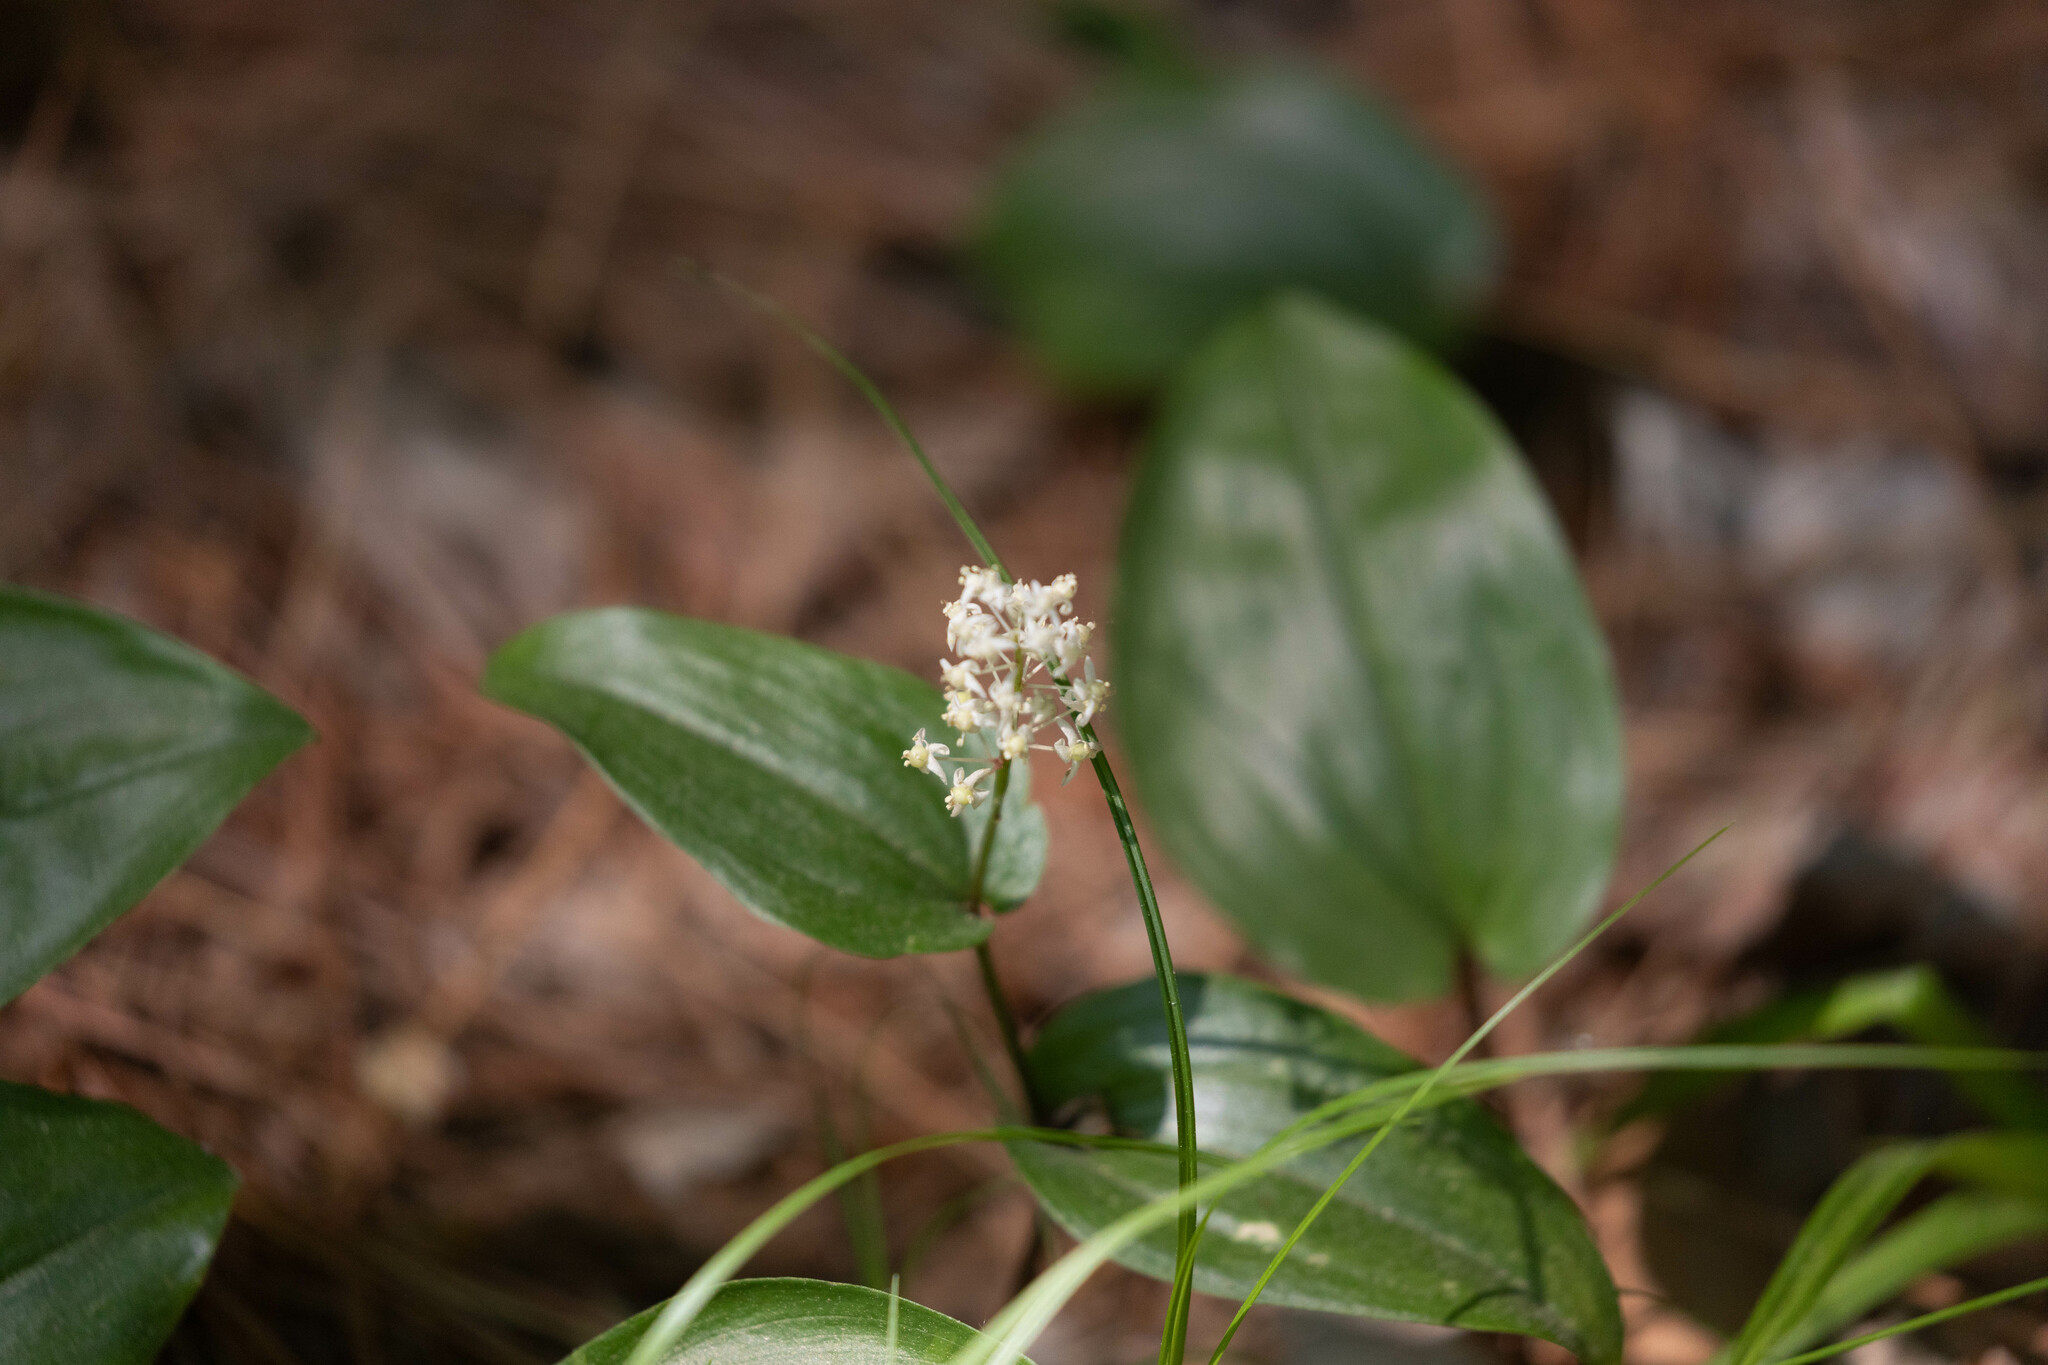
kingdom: Plantae
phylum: Tracheophyta
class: Liliopsida
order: Asparagales
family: Asparagaceae
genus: Maianthemum
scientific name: Maianthemum canadense
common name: False lily-of-the-valley
